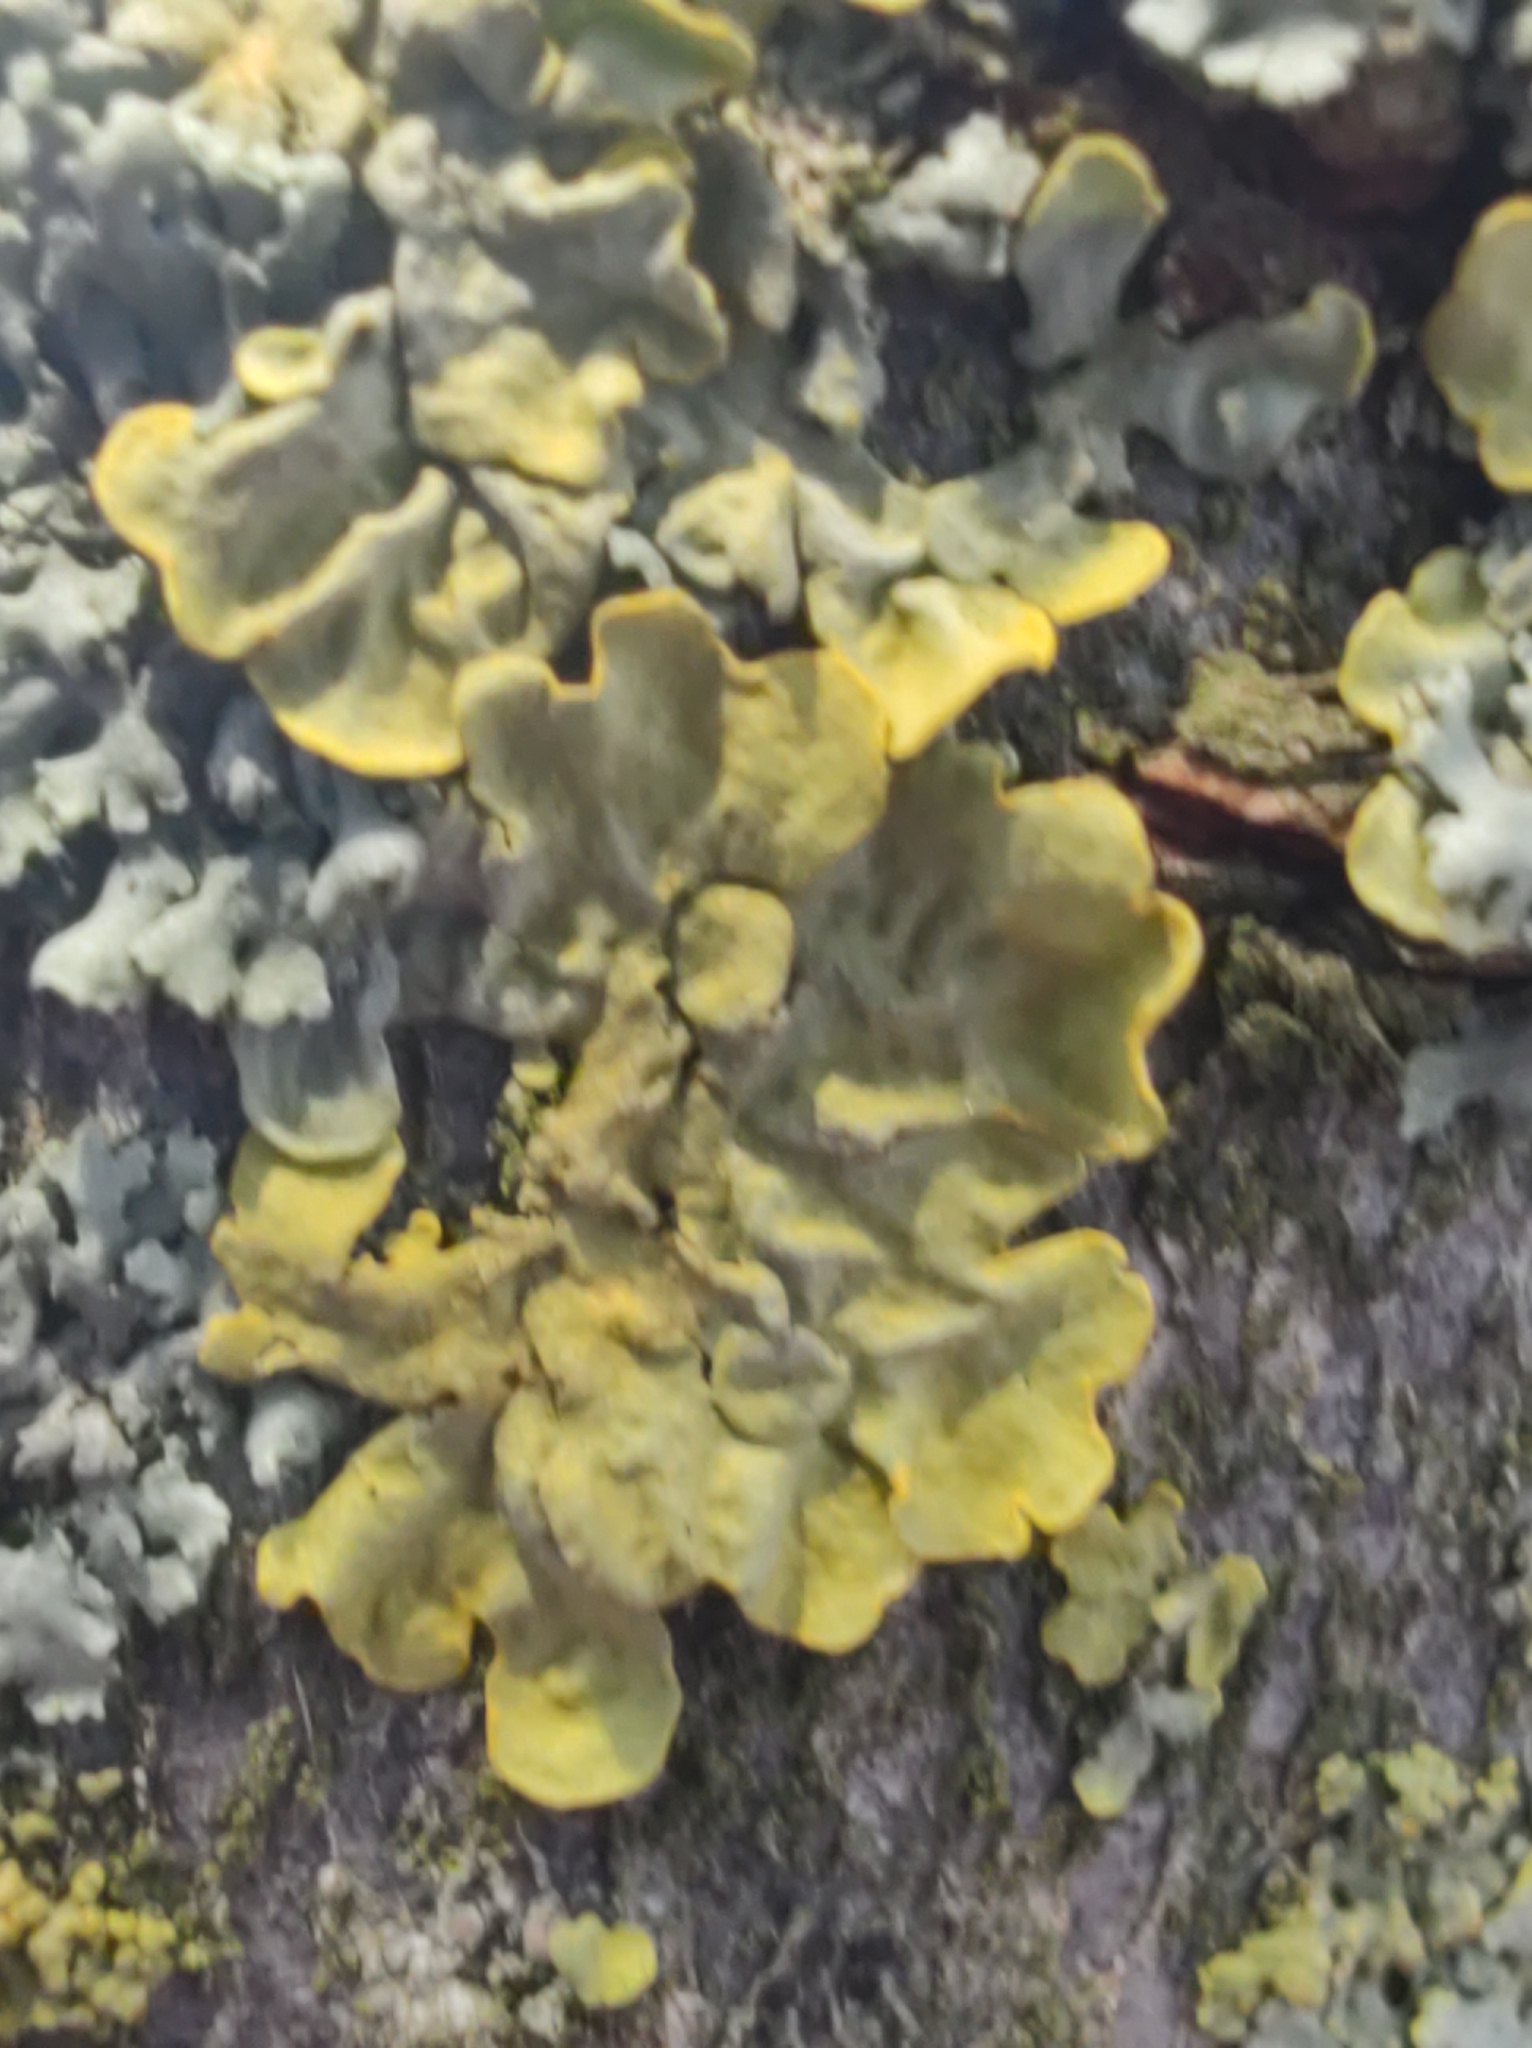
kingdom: Fungi
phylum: Ascomycota
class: Lecanoromycetes
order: Teloschistales
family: Teloschistaceae
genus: Xanthoria
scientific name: Xanthoria parietina
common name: Common orange lichen
